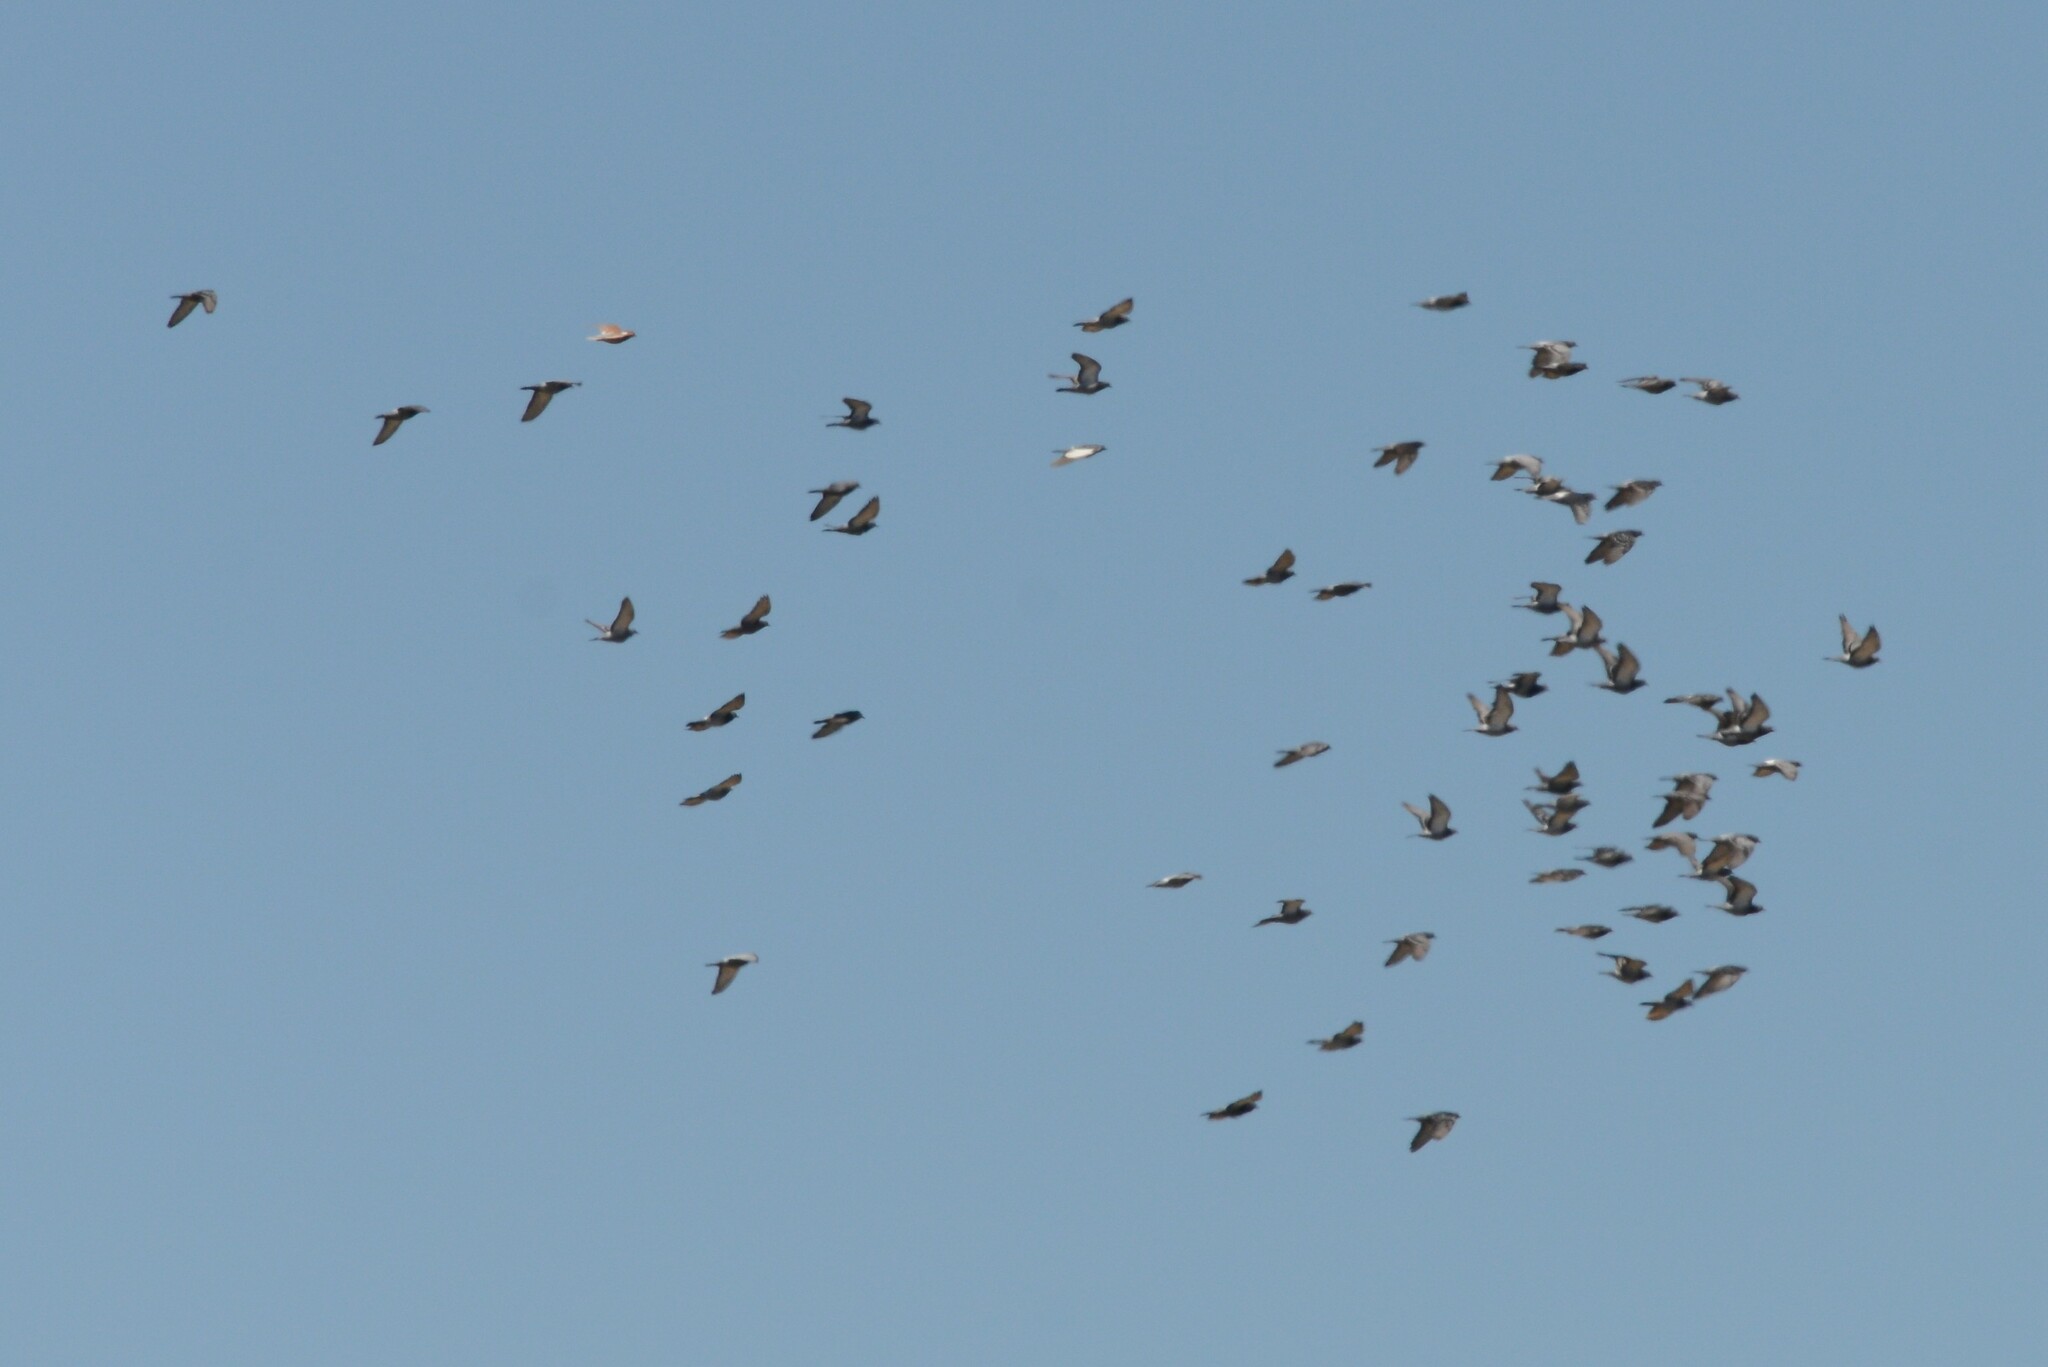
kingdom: Animalia
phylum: Chordata
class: Aves
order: Columbiformes
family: Columbidae
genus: Columba
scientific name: Columba livia
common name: Rock pigeon
